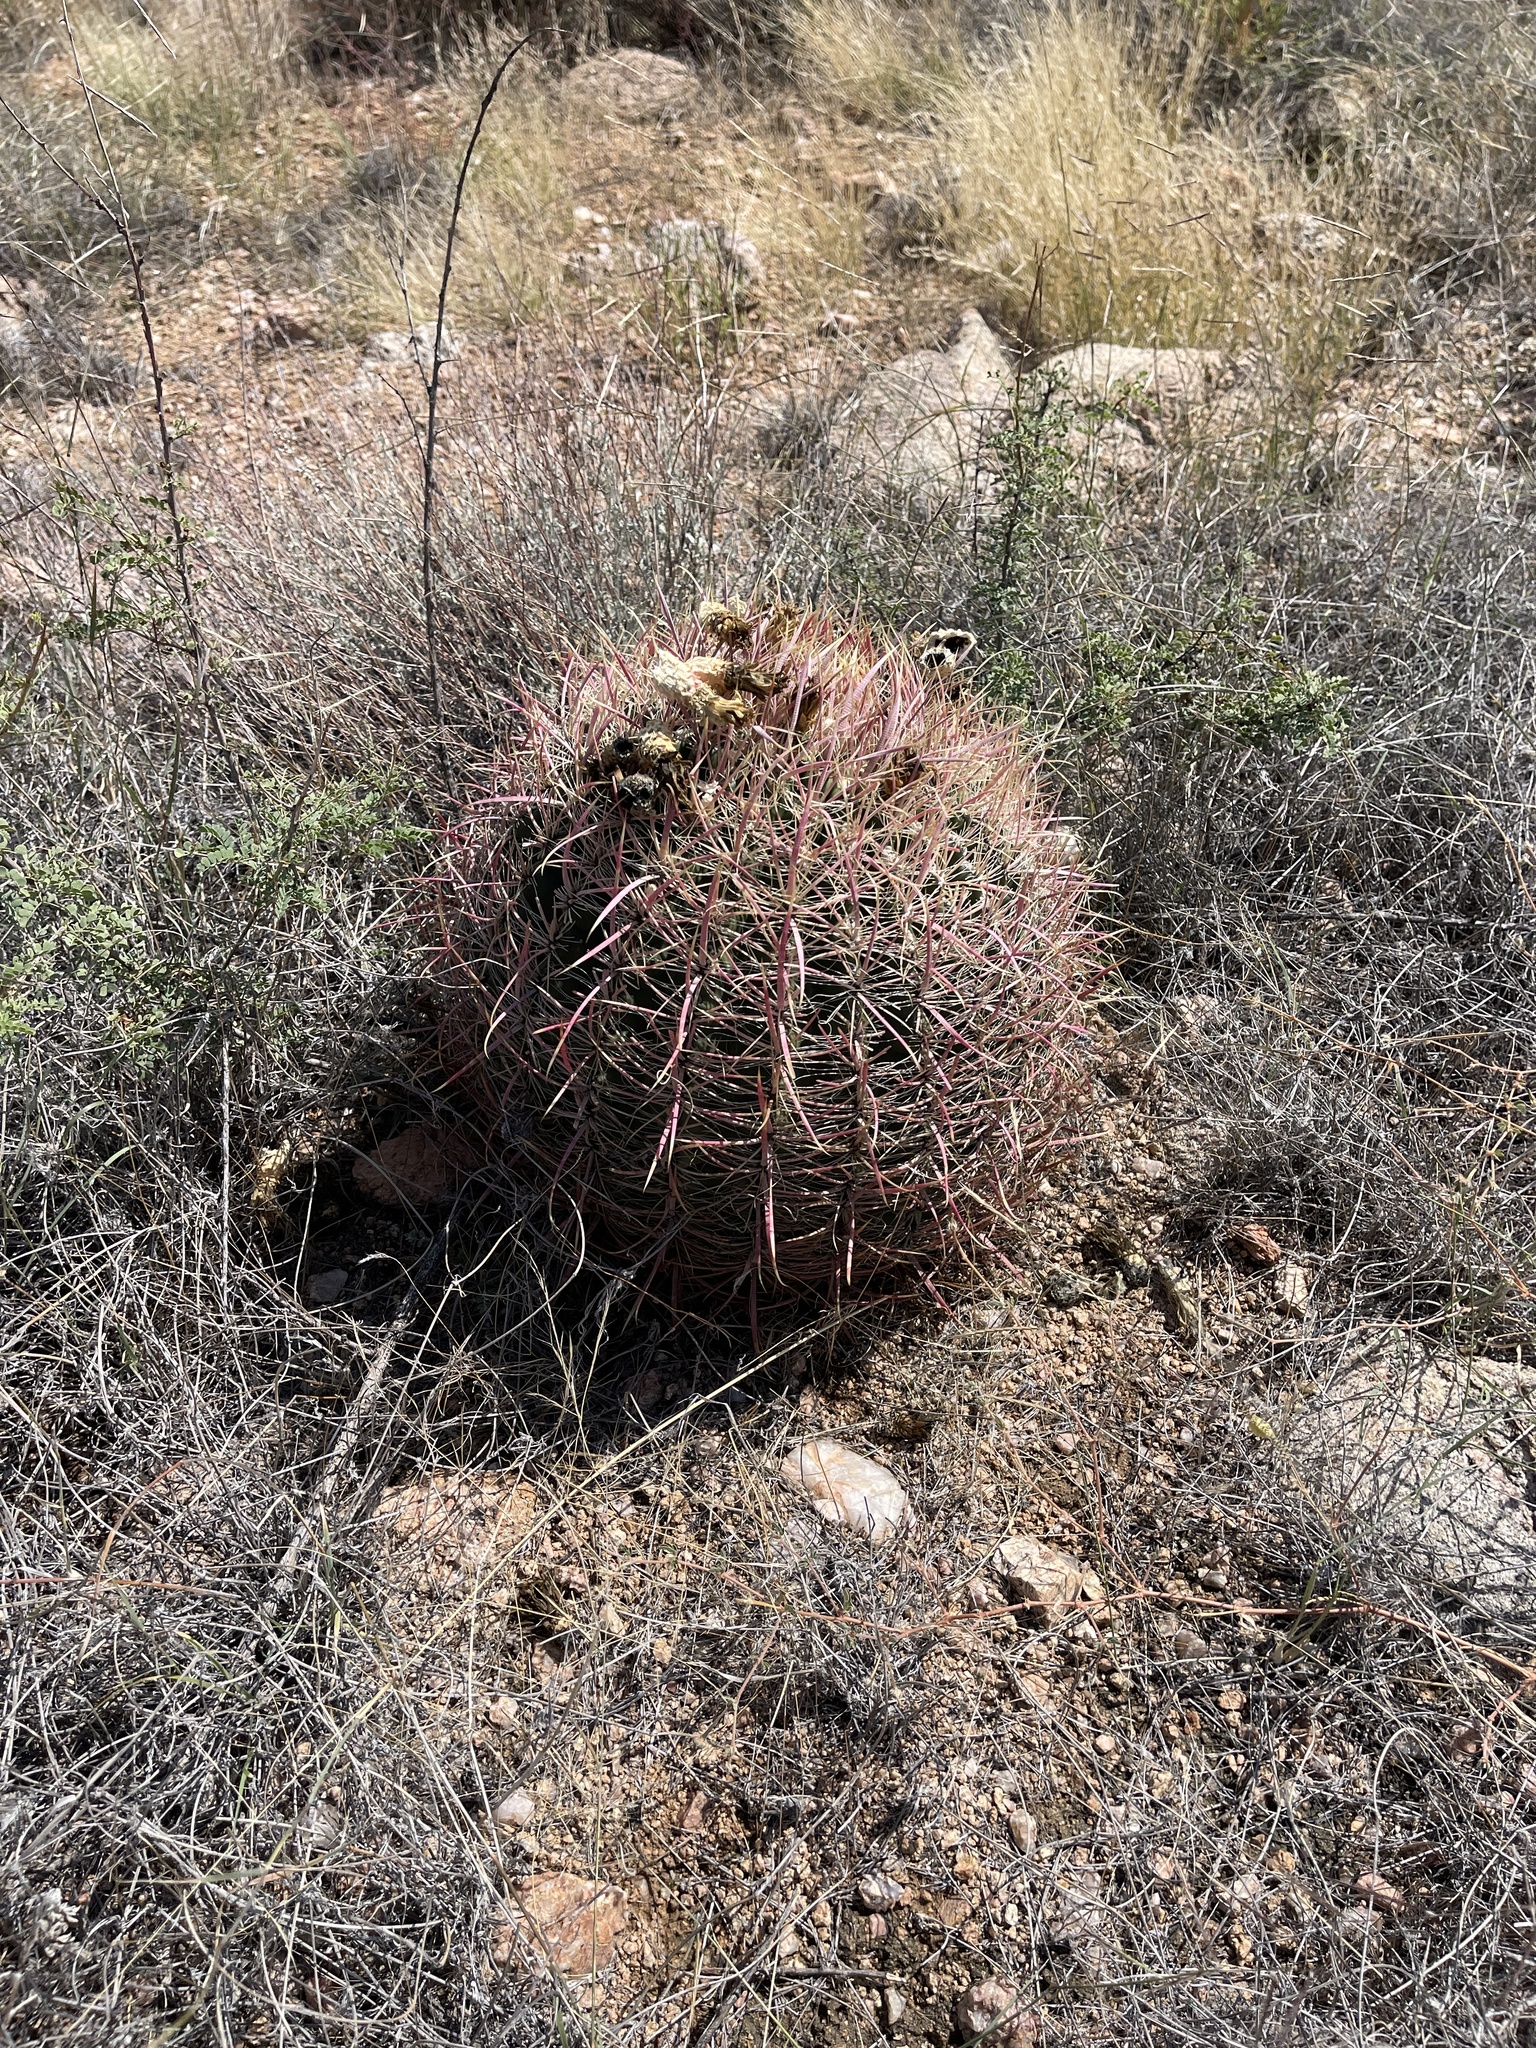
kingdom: Plantae
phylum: Tracheophyta
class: Magnoliopsida
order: Caryophyllales
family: Cactaceae
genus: Ferocactus
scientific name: Ferocactus cylindraceus
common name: California barrel cactus
